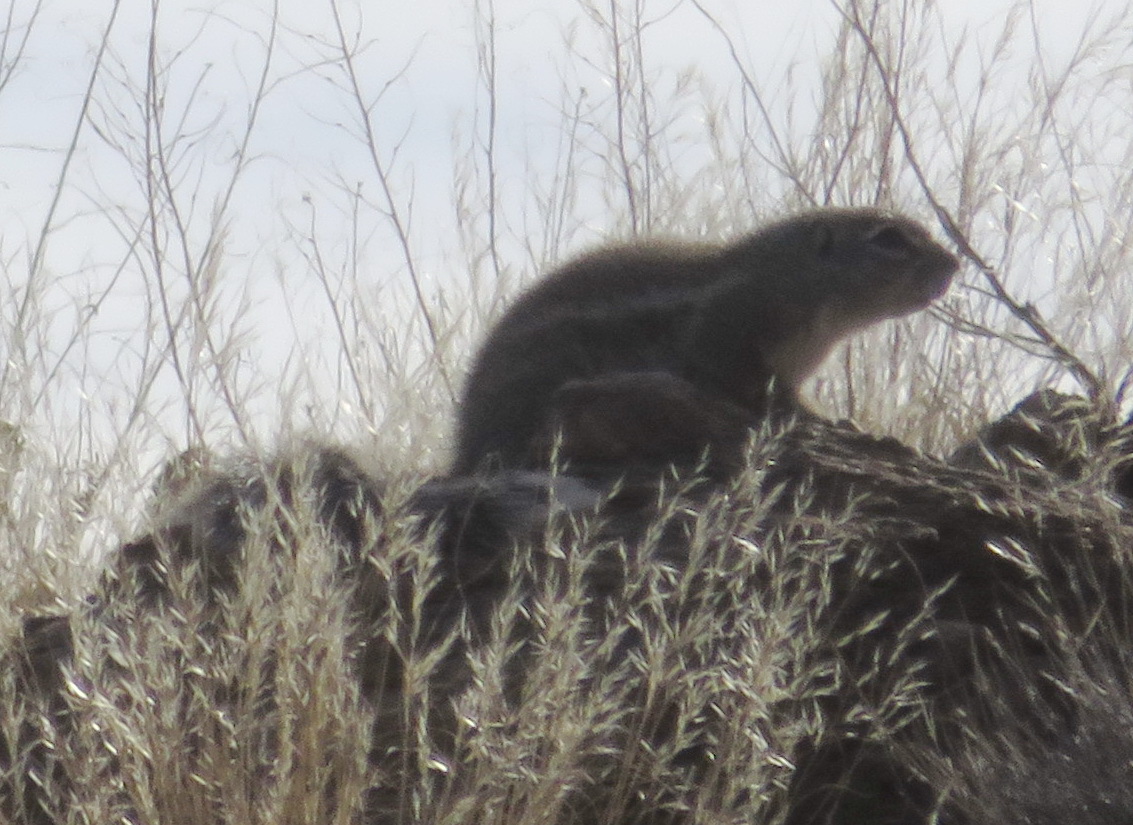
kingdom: Animalia
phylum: Chordata
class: Mammalia
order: Rodentia
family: Sciuridae
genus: Xerus
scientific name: Xerus inauris
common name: South african ground squirrel
